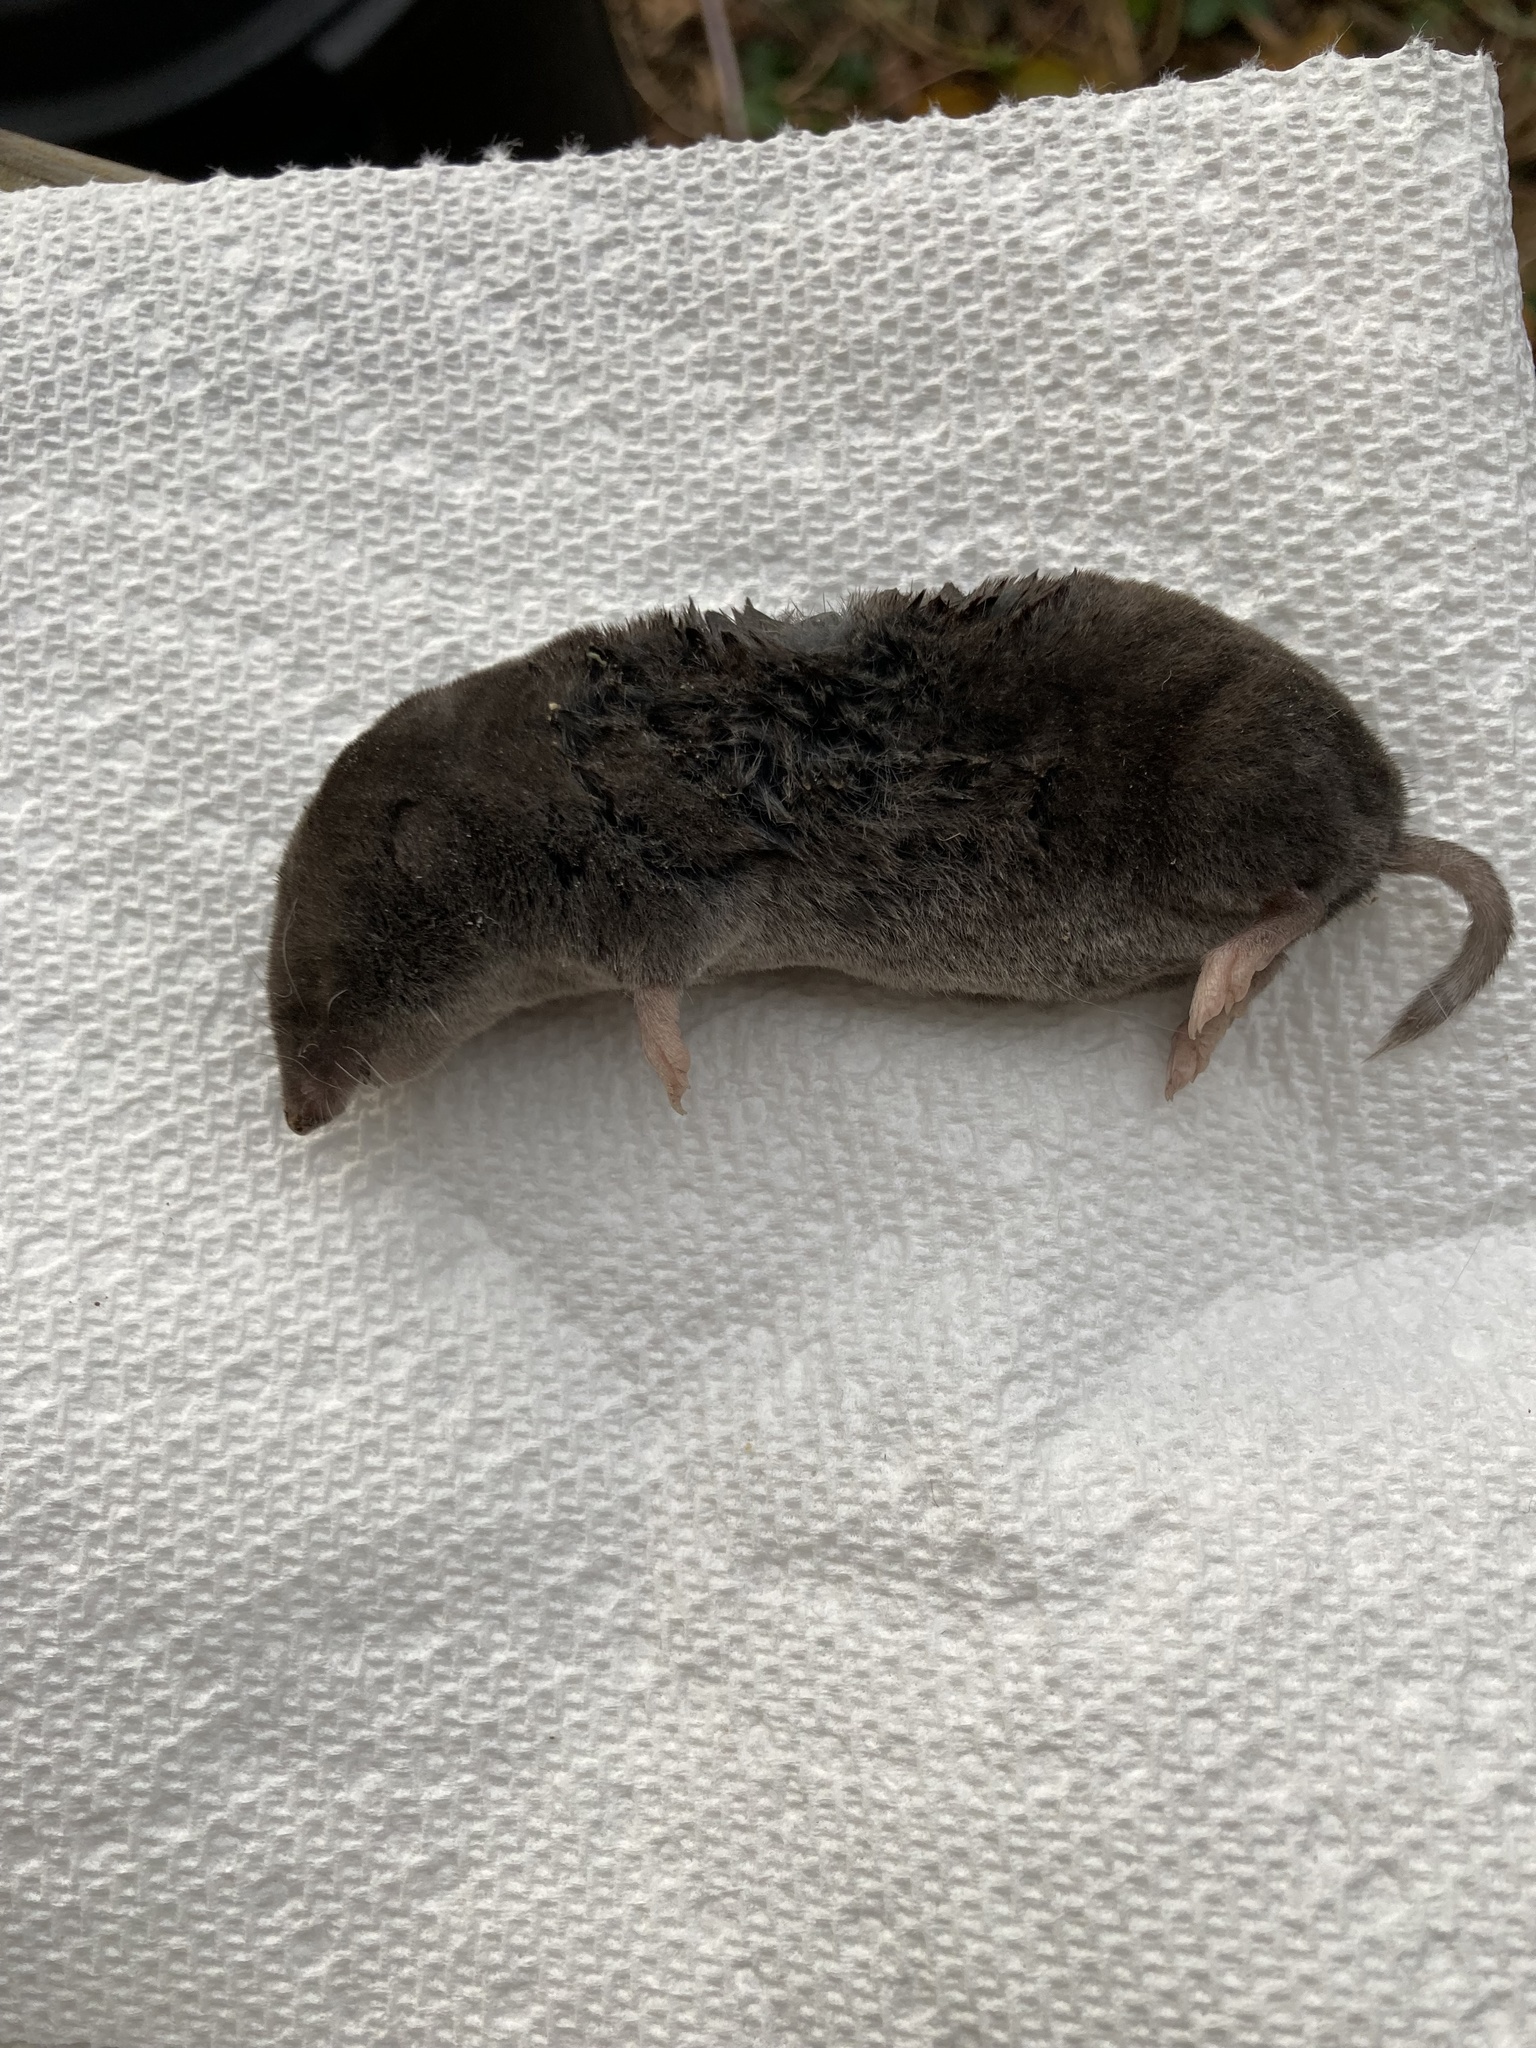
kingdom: Animalia
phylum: Chordata
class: Mammalia
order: Soricomorpha
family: Soricidae
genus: Blarina
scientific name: Blarina brevicauda
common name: Northern short-tailed shrew
